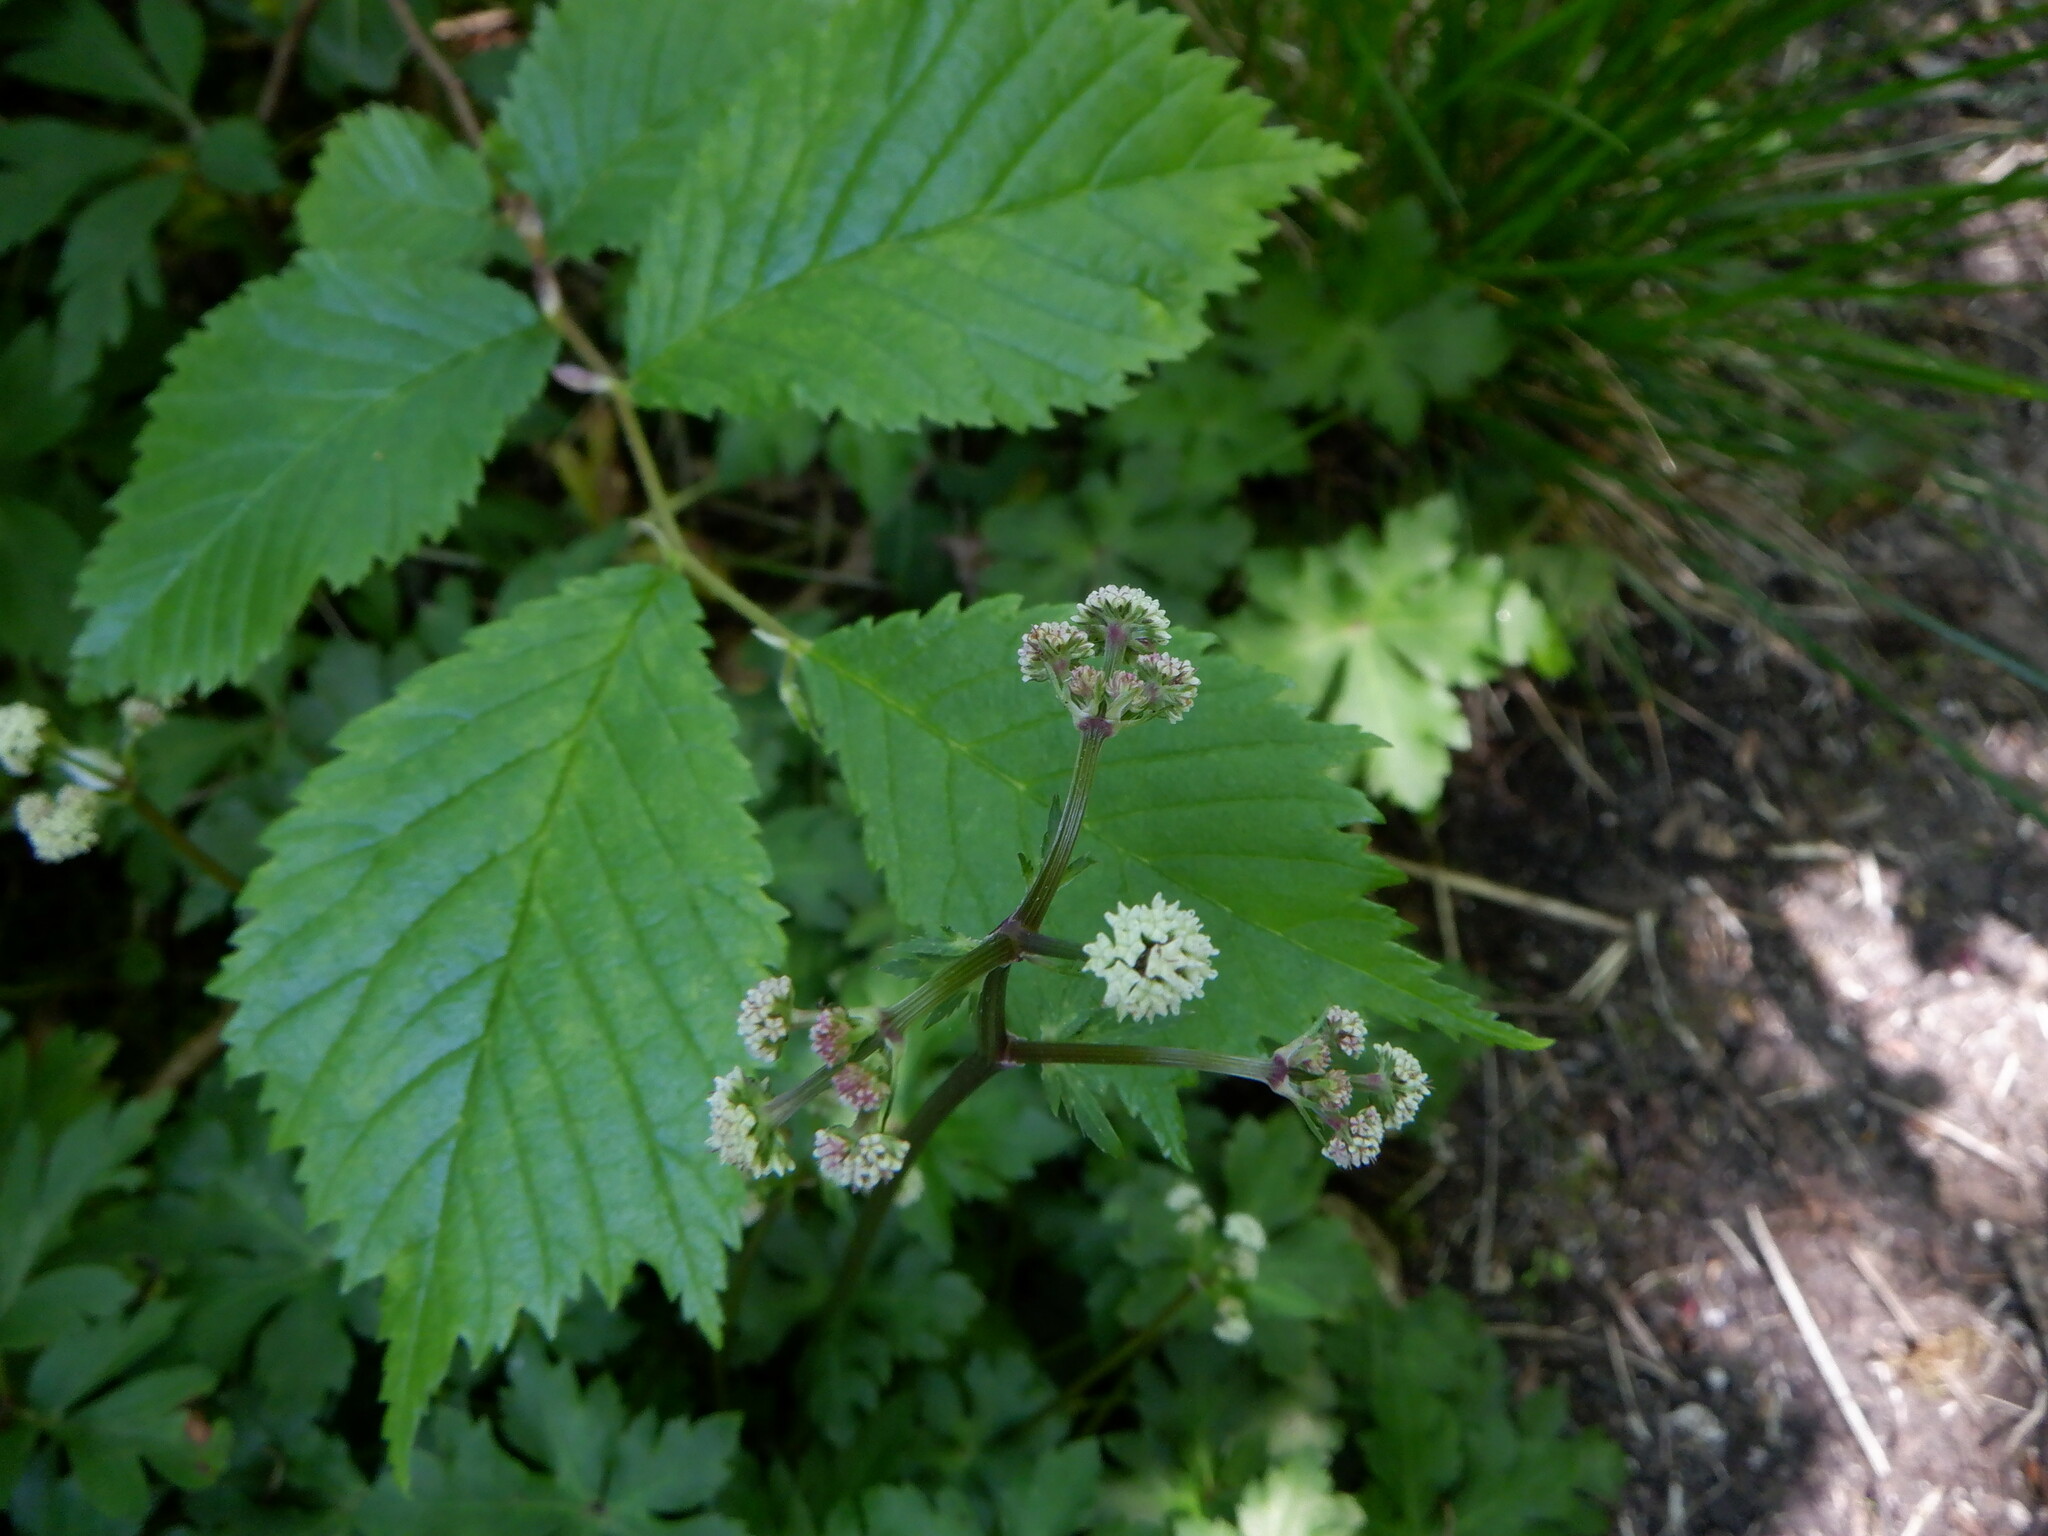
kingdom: Plantae
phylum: Tracheophyta
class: Magnoliopsida
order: Apiales
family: Apiaceae
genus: Sanicula
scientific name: Sanicula europaea
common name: Sanicle
